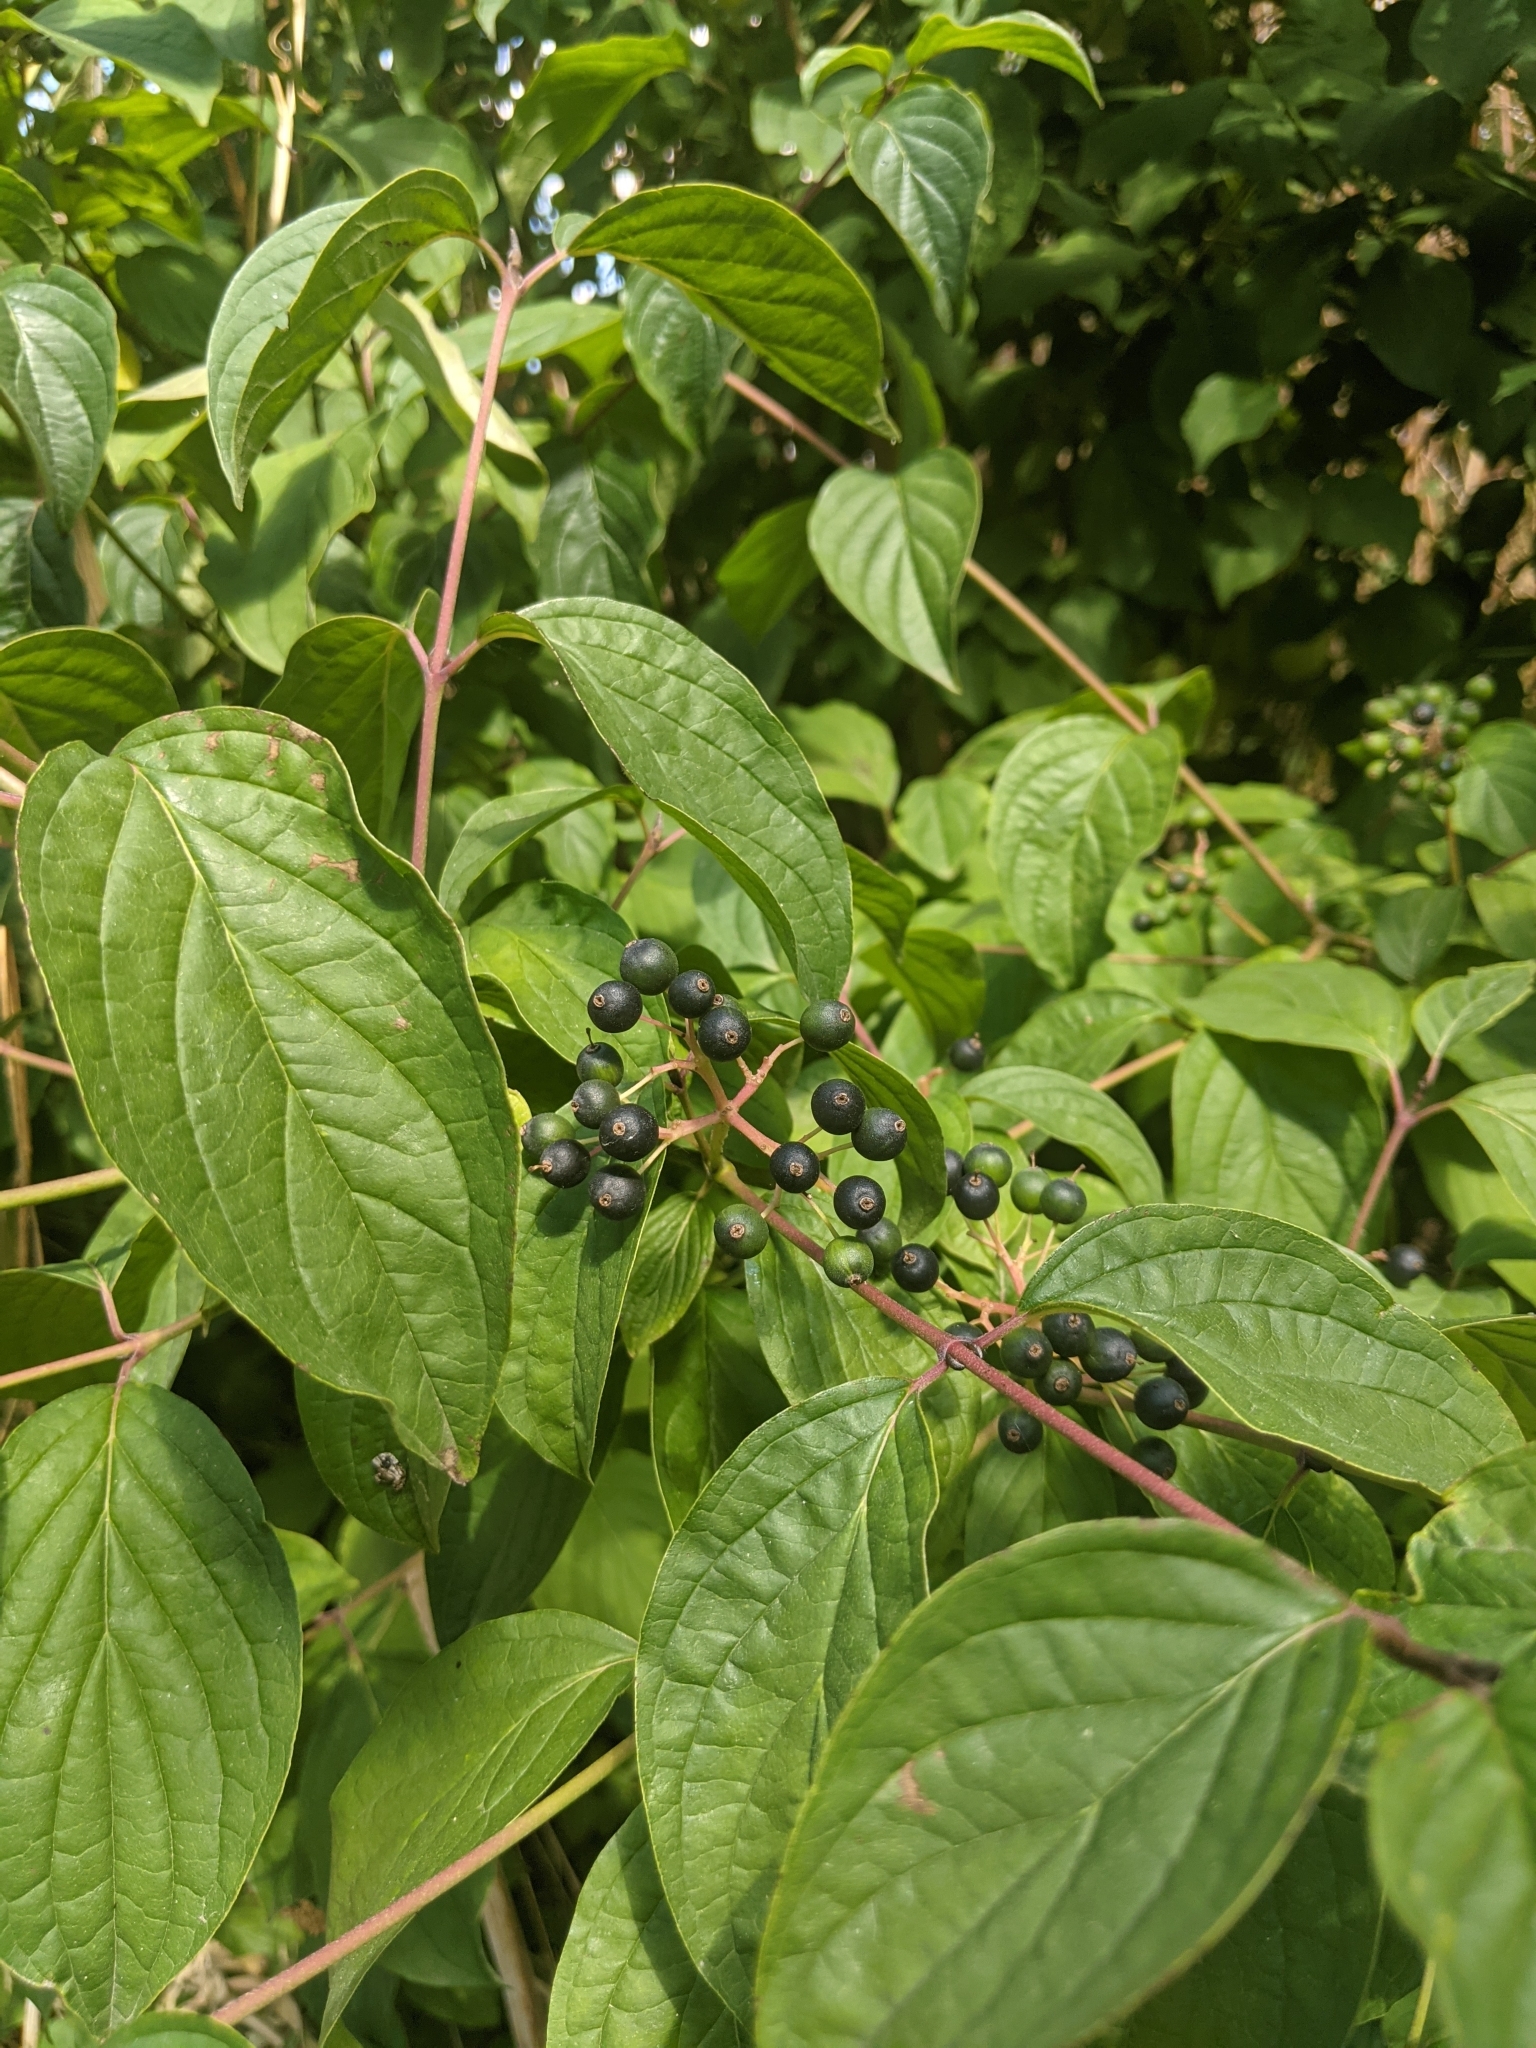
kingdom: Plantae
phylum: Tracheophyta
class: Magnoliopsida
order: Cornales
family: Cornaceae
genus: Cornus
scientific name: Cornus sanguinea
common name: Dogwood
